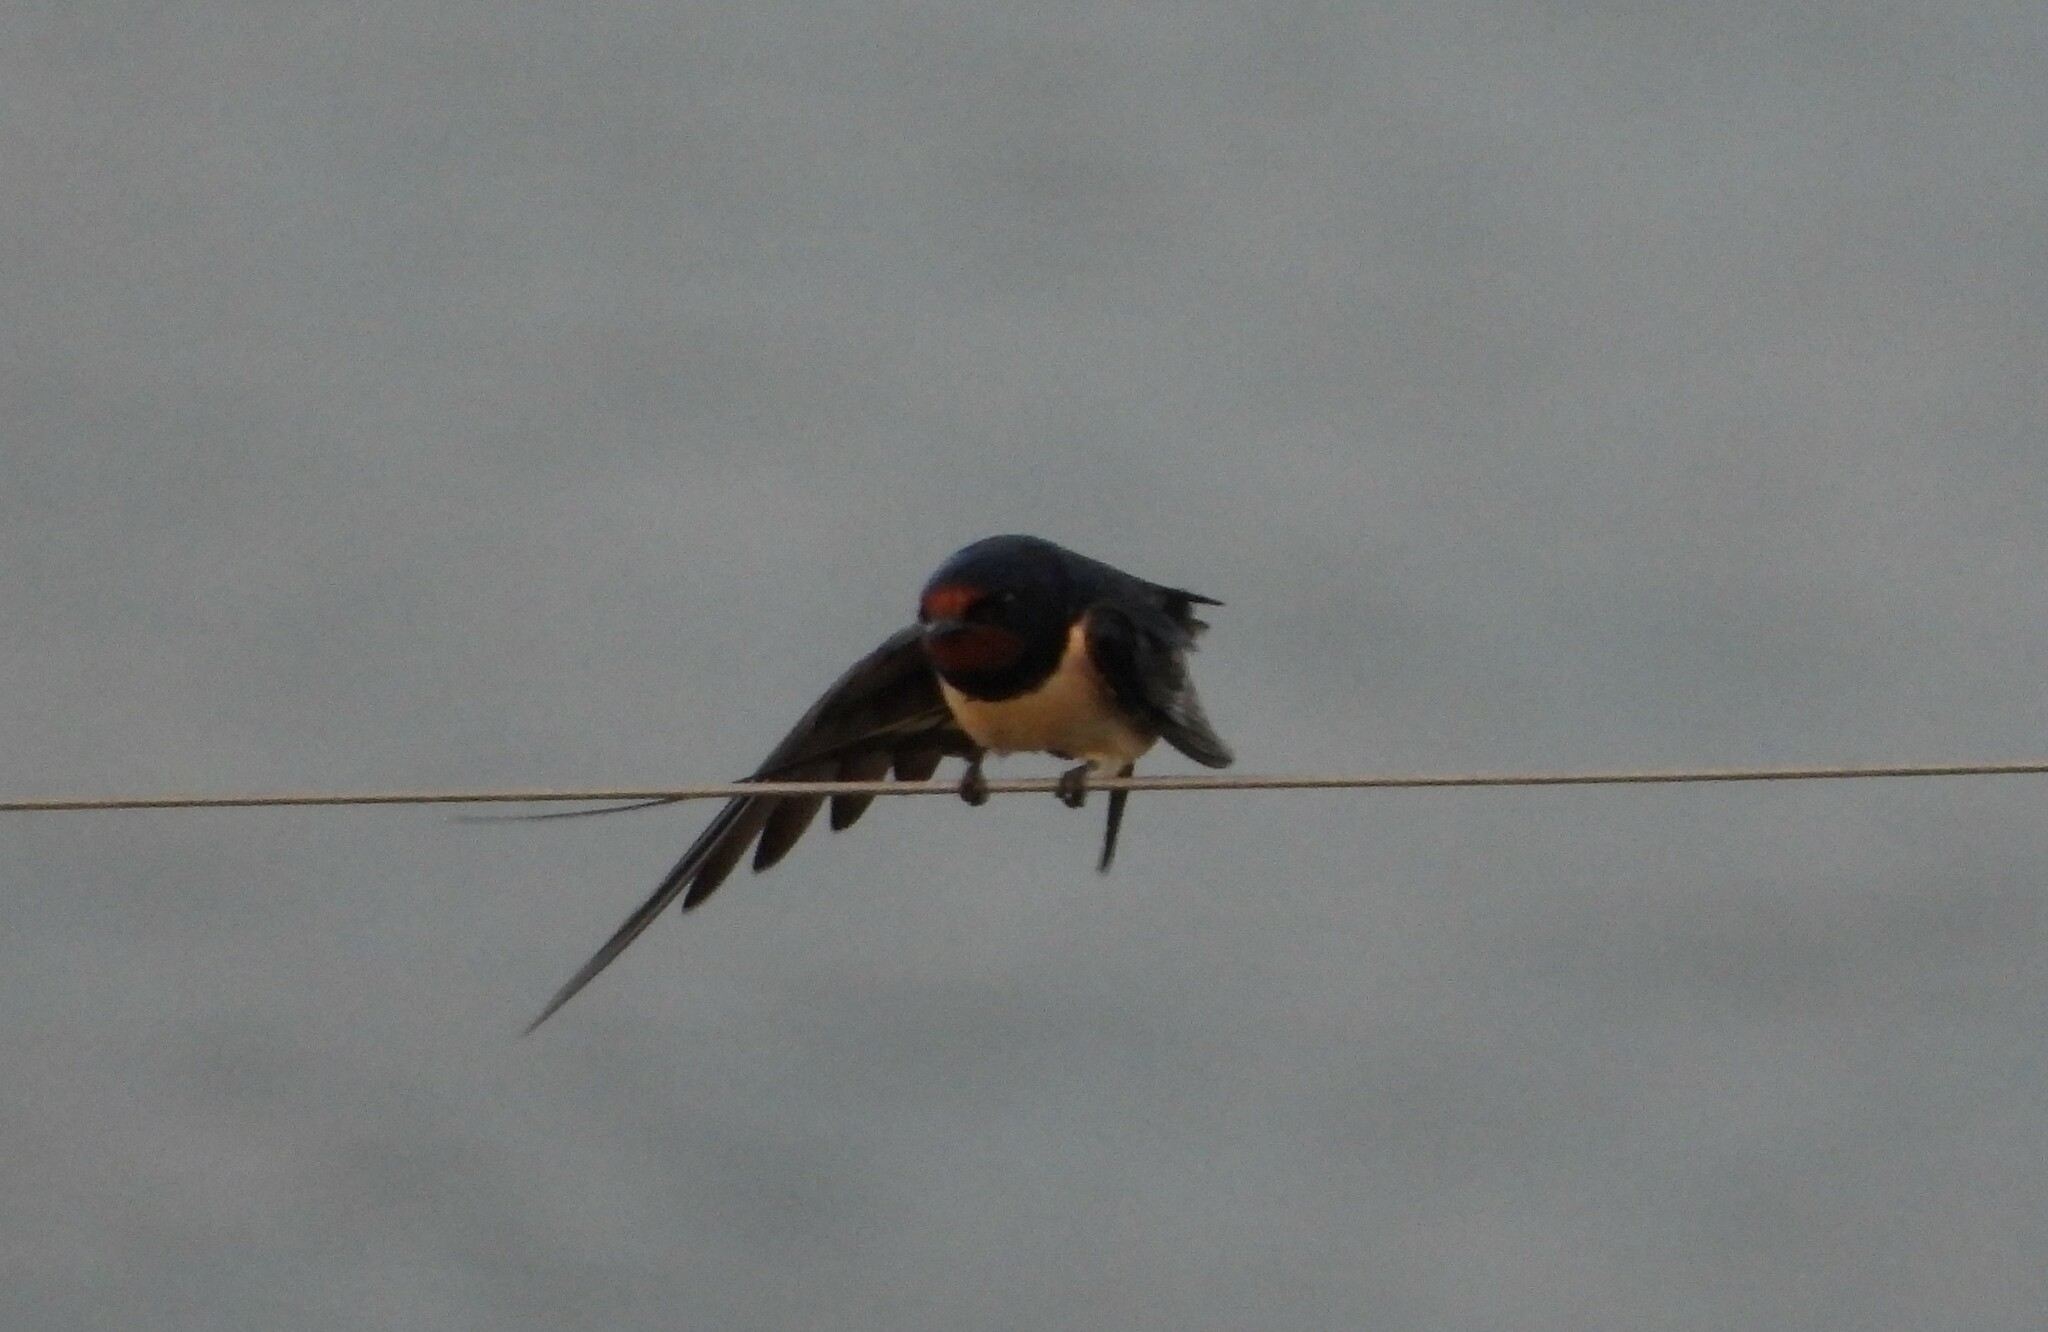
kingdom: Animalia
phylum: Chordata
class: Aves
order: Passeriformes
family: Hirundinidae
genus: Hirundo
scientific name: Hirundo rustica
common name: Barn swallow
